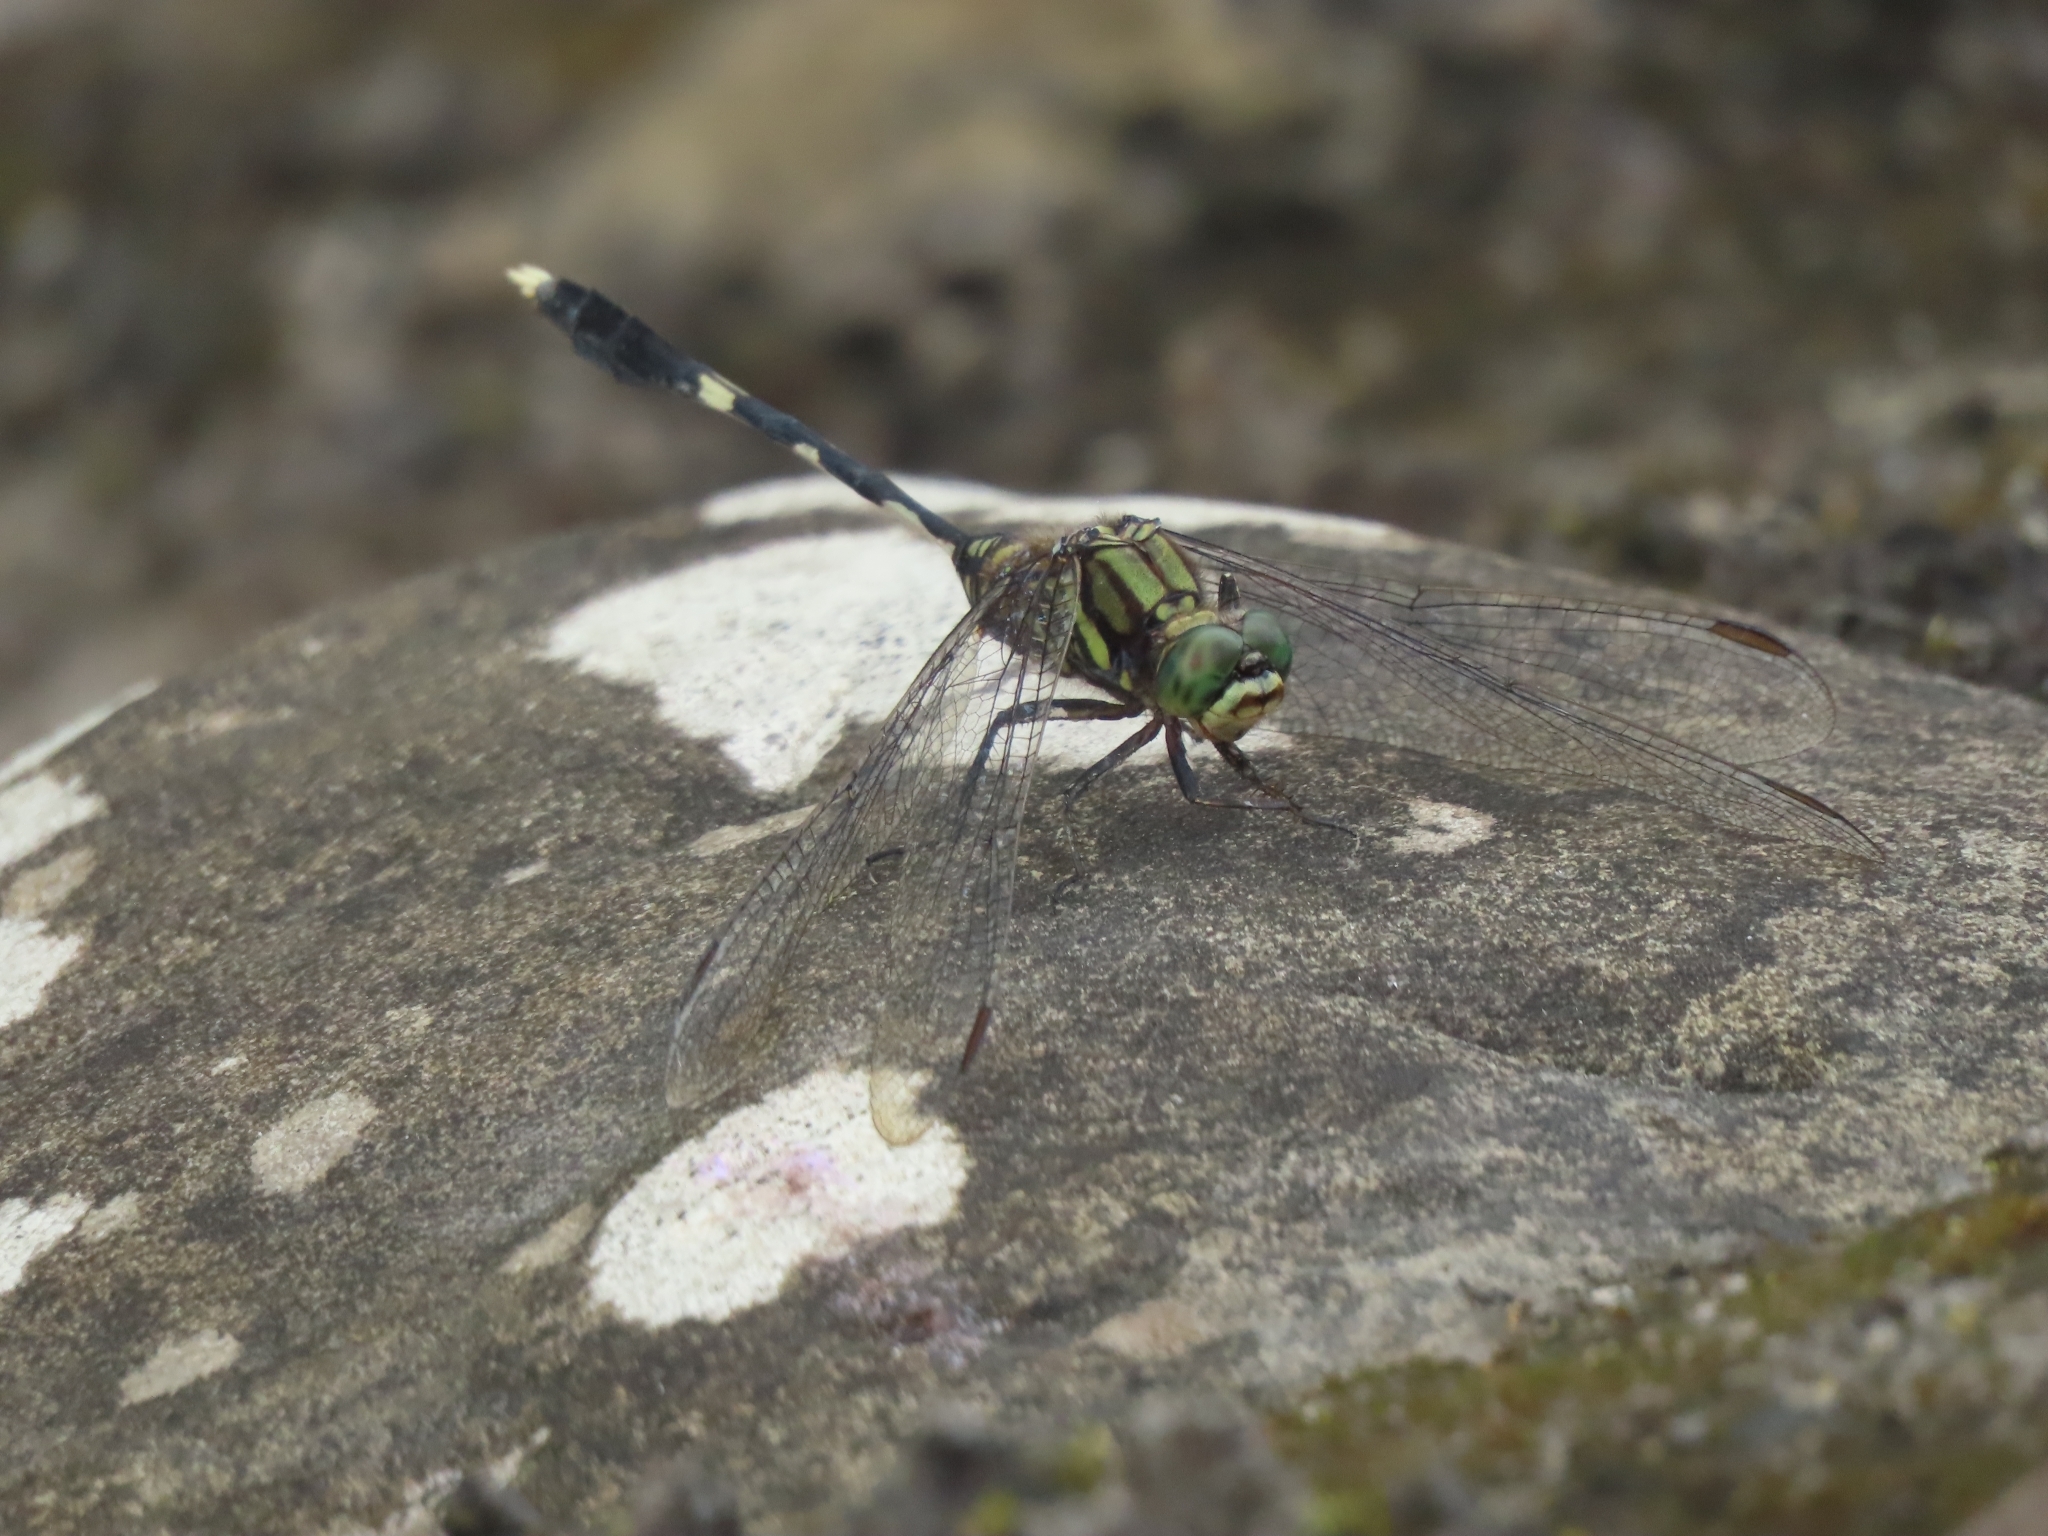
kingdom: Animalia
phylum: Arthropoda
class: Insecta
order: Odonata
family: Libellulidae
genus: Orthetrum
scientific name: Orthetrum sabina
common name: Slender skimmer
